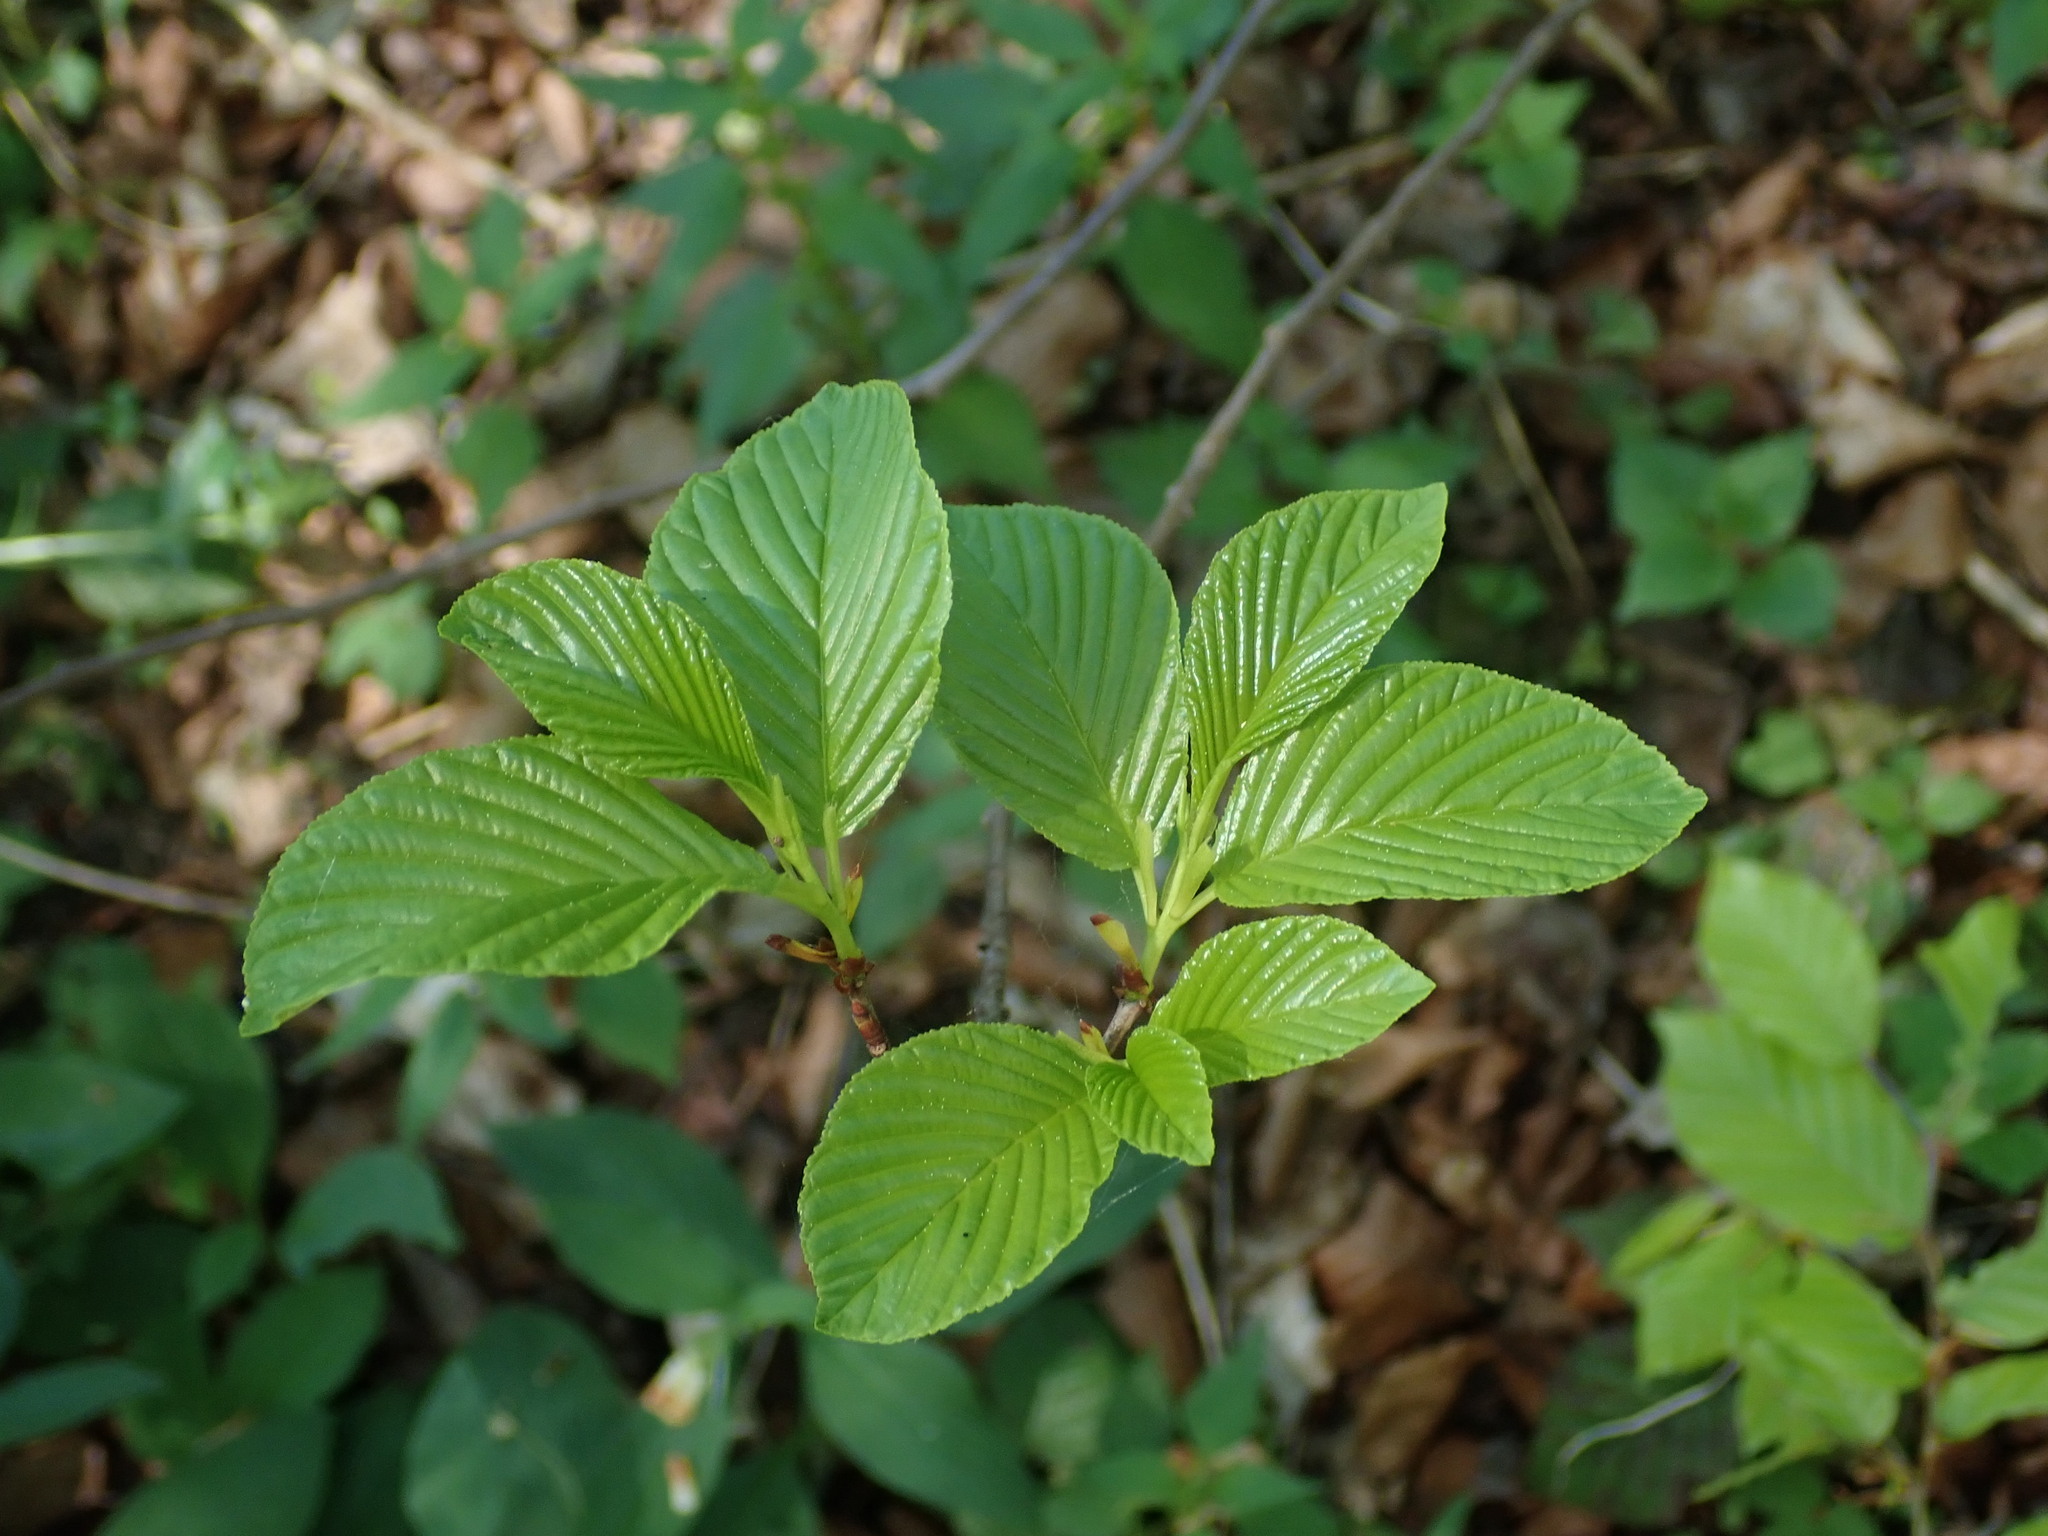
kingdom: Plantae
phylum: Tracheophyta
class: Magnoliopsida
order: Rosales
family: Rhamnaceae
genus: Atadinus
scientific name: Atadinus fallax
